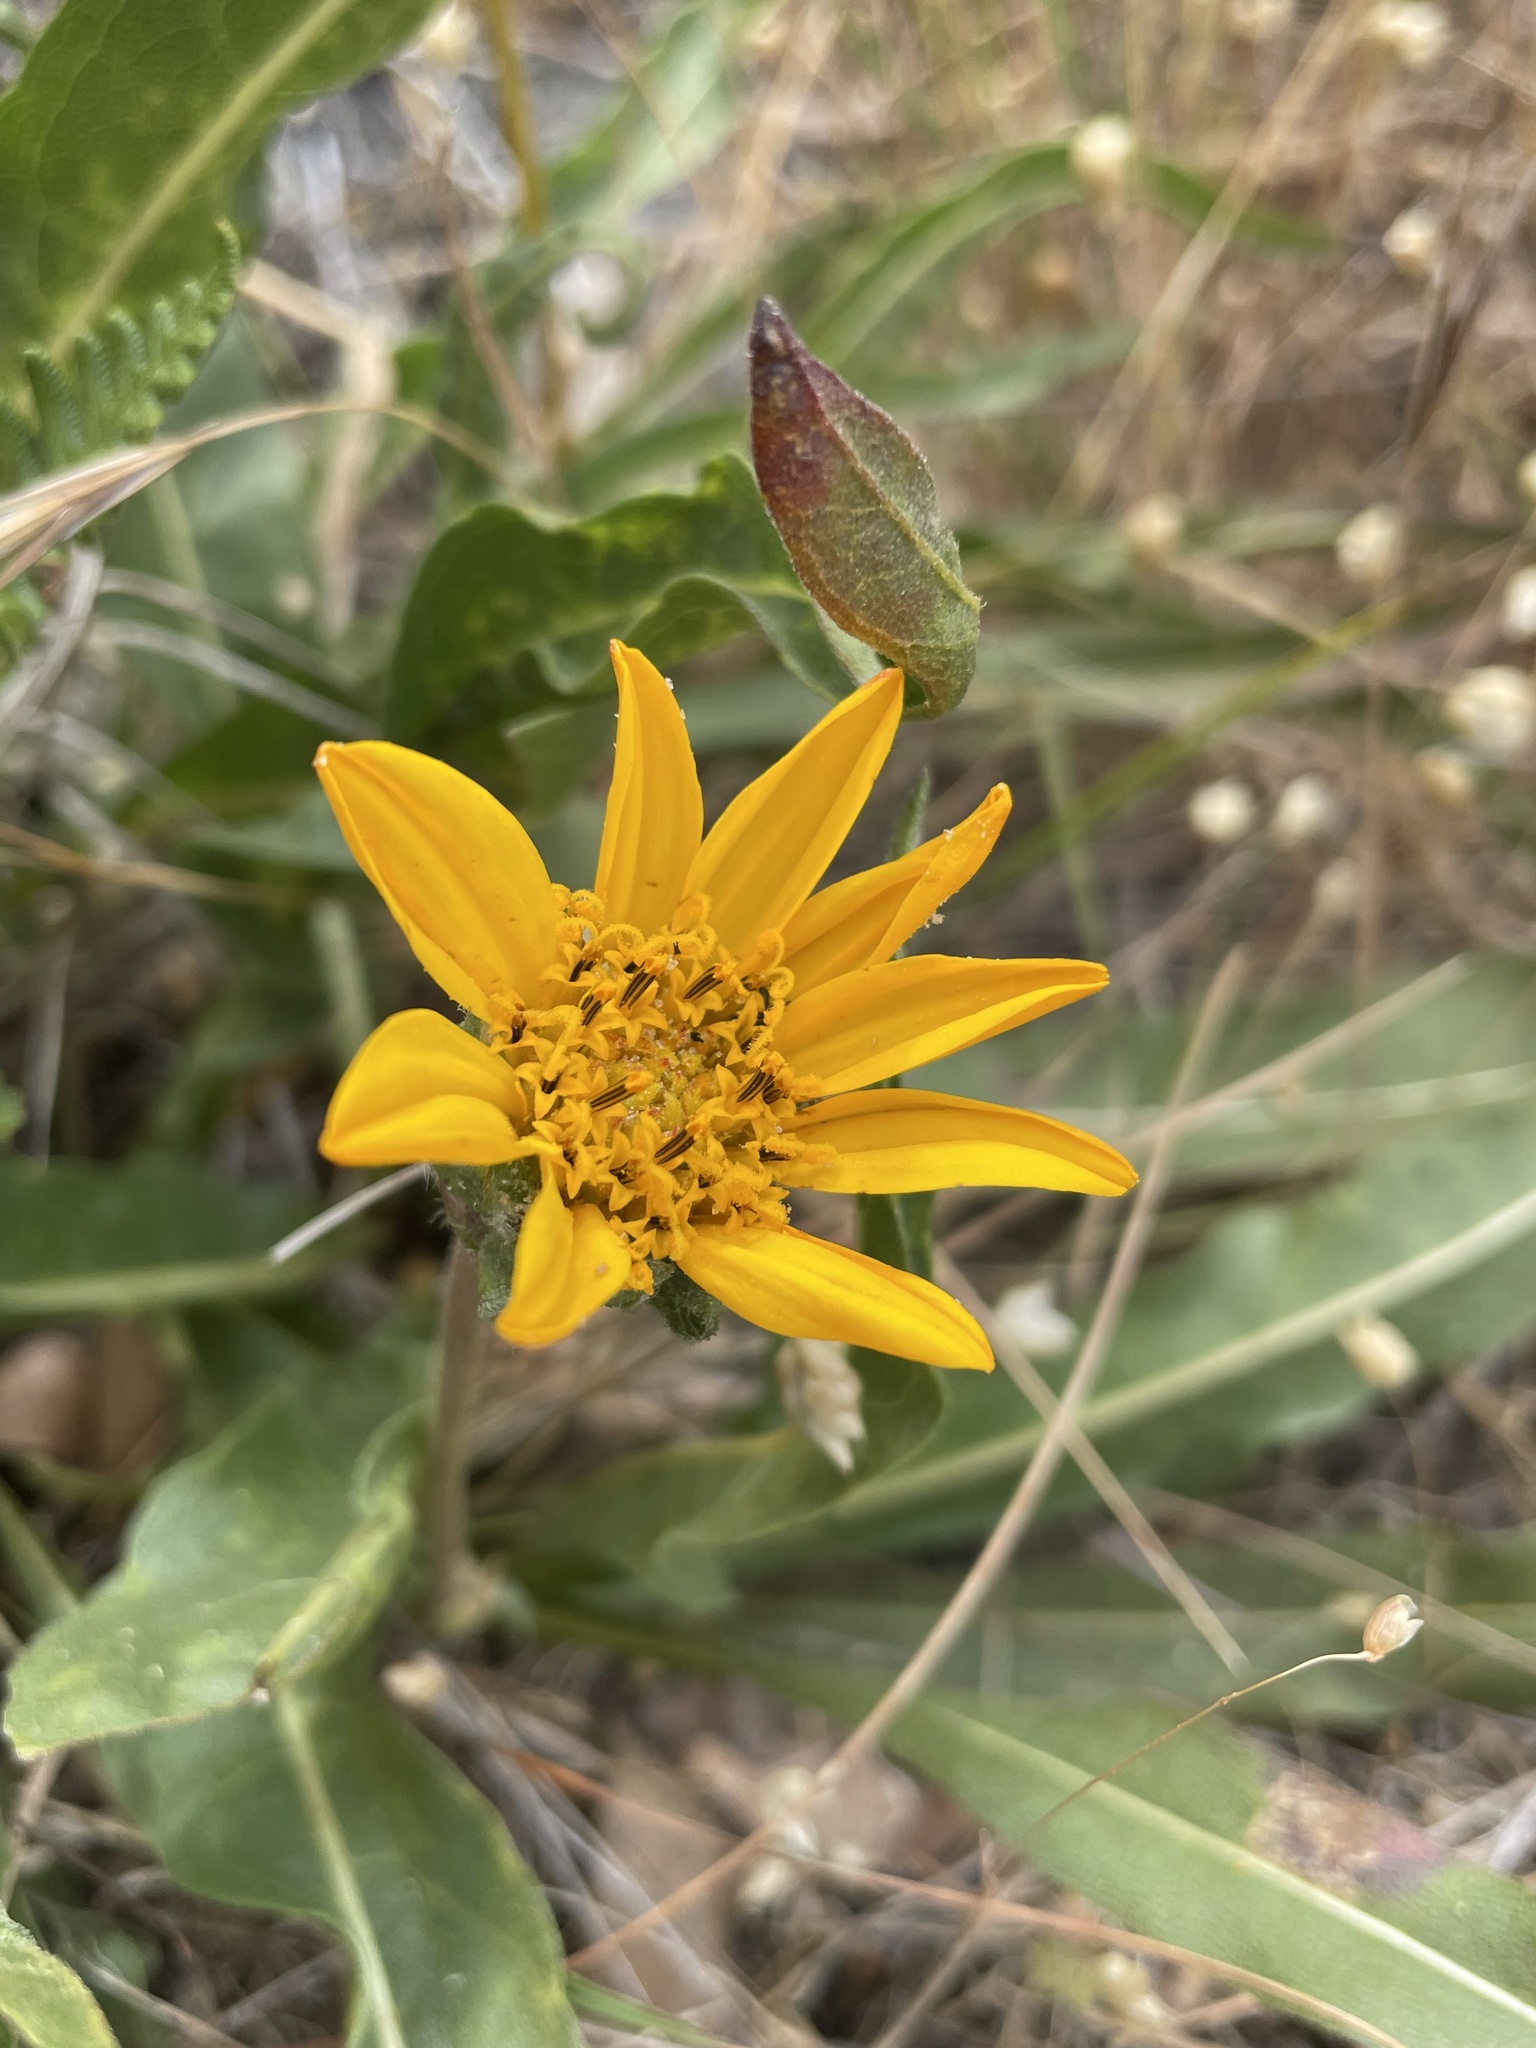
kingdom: Plantae
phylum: Tracheophyta
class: Magnoliopsida
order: Asterales
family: Asteraceae
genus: Wyethia
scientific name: Wyethia angustifolia
